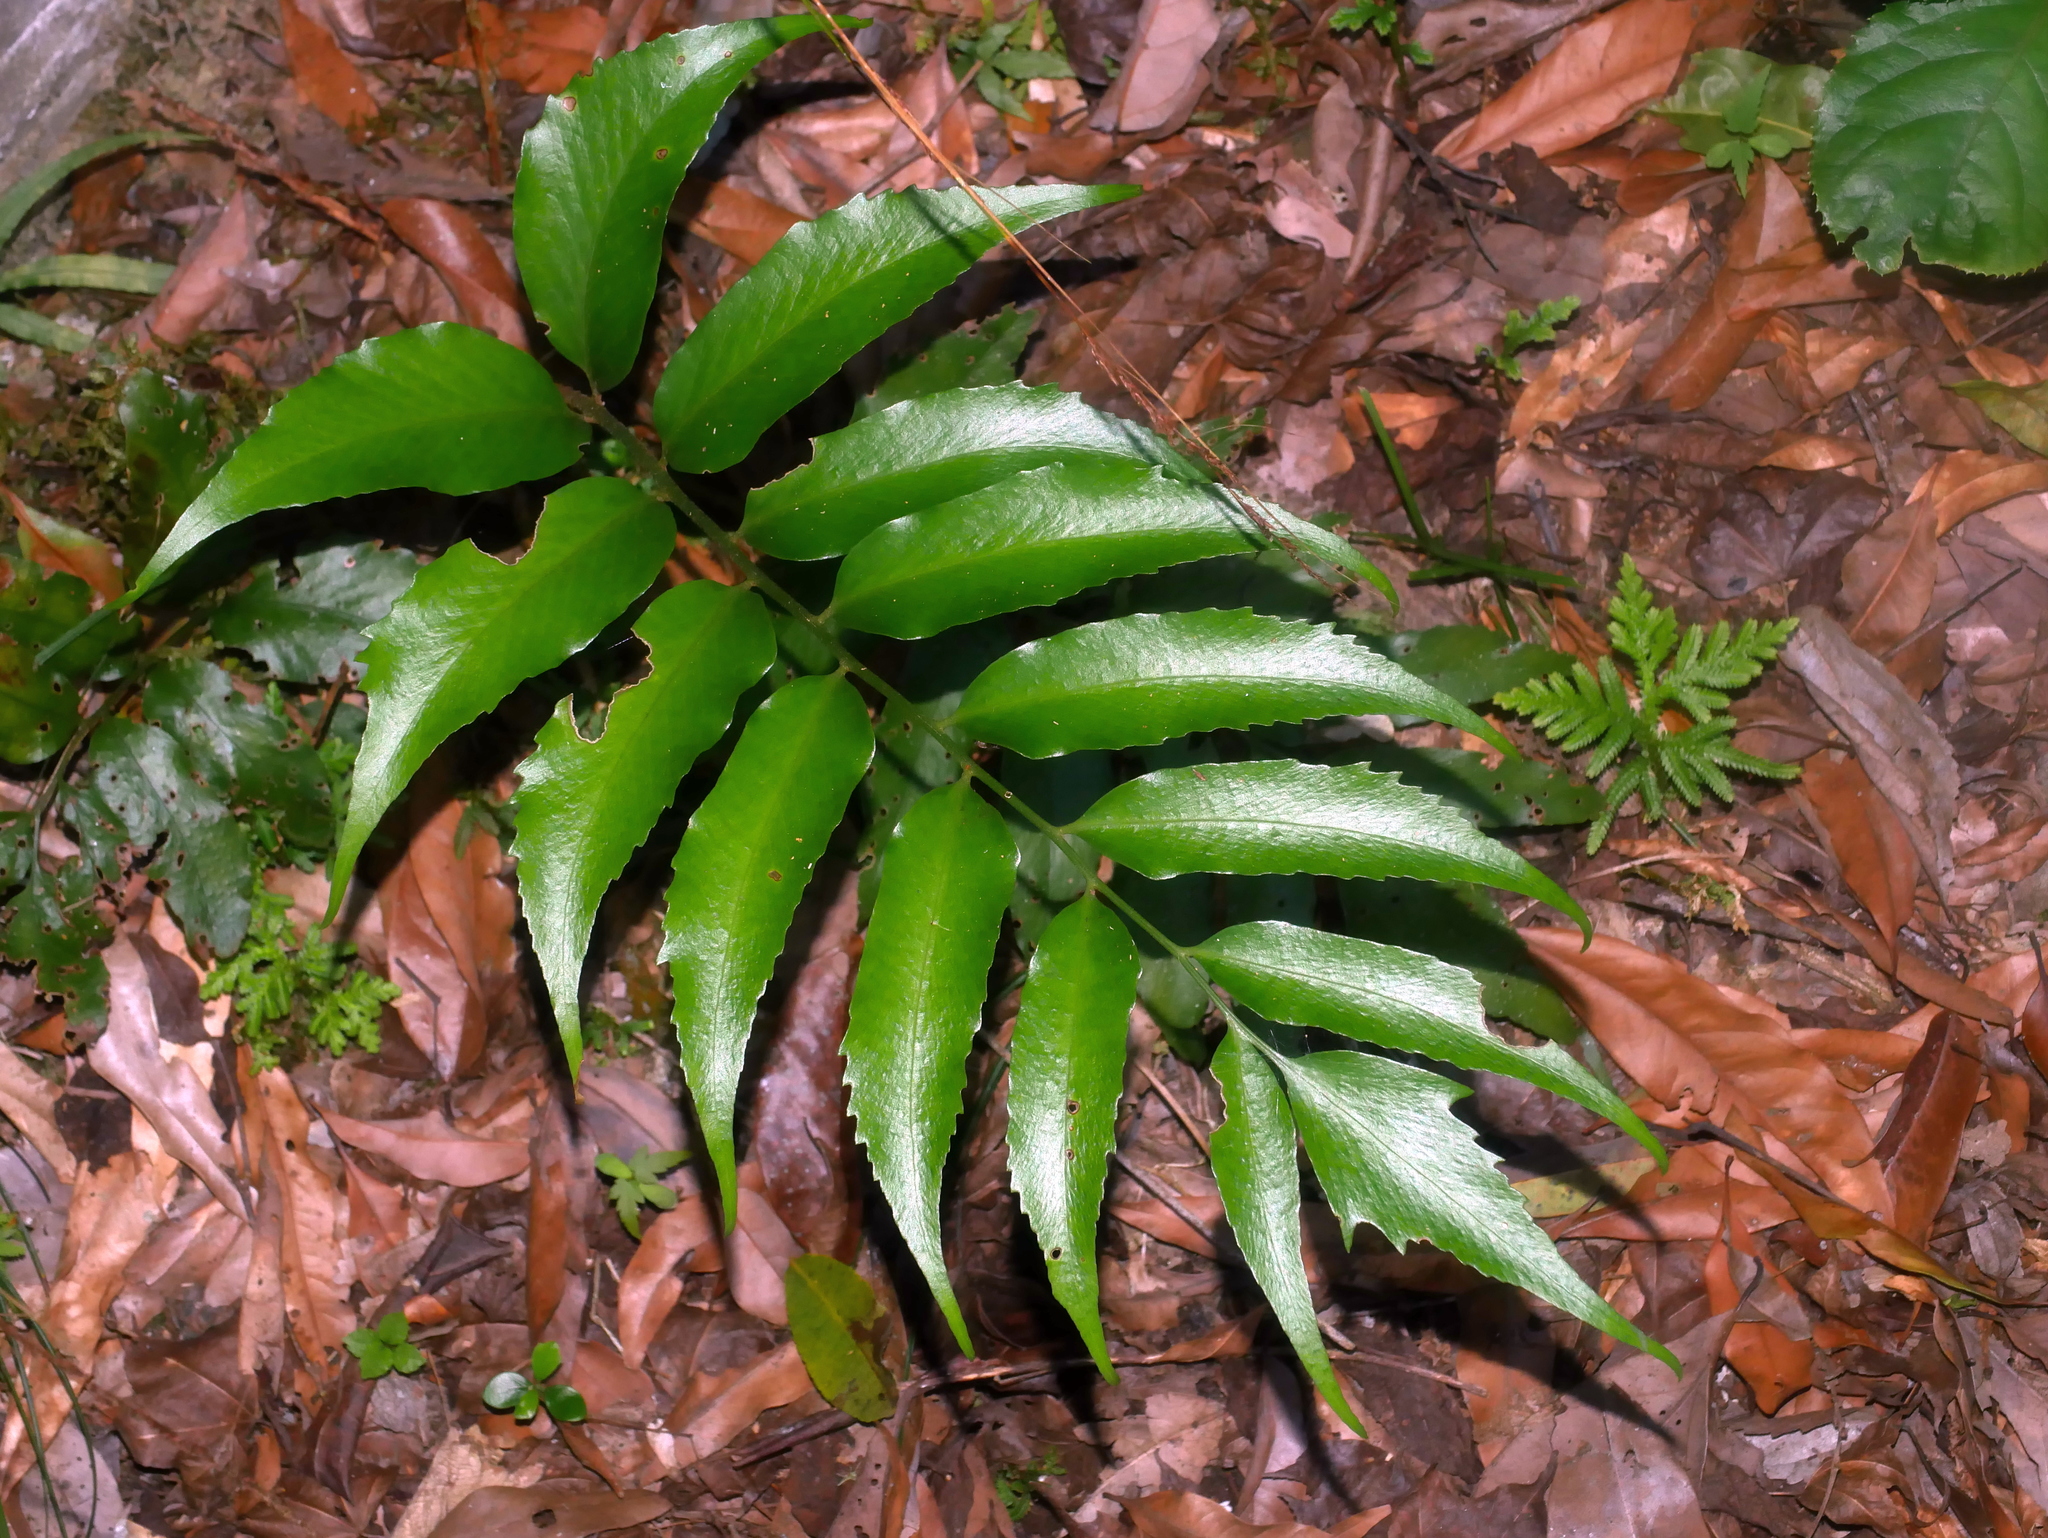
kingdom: Plantae
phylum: Tracheophyta
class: Polypodiopsida
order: Polypodiales
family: Dryopteridaceae
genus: Cyrtomium
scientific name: Cyrtomium devexiscapulae
